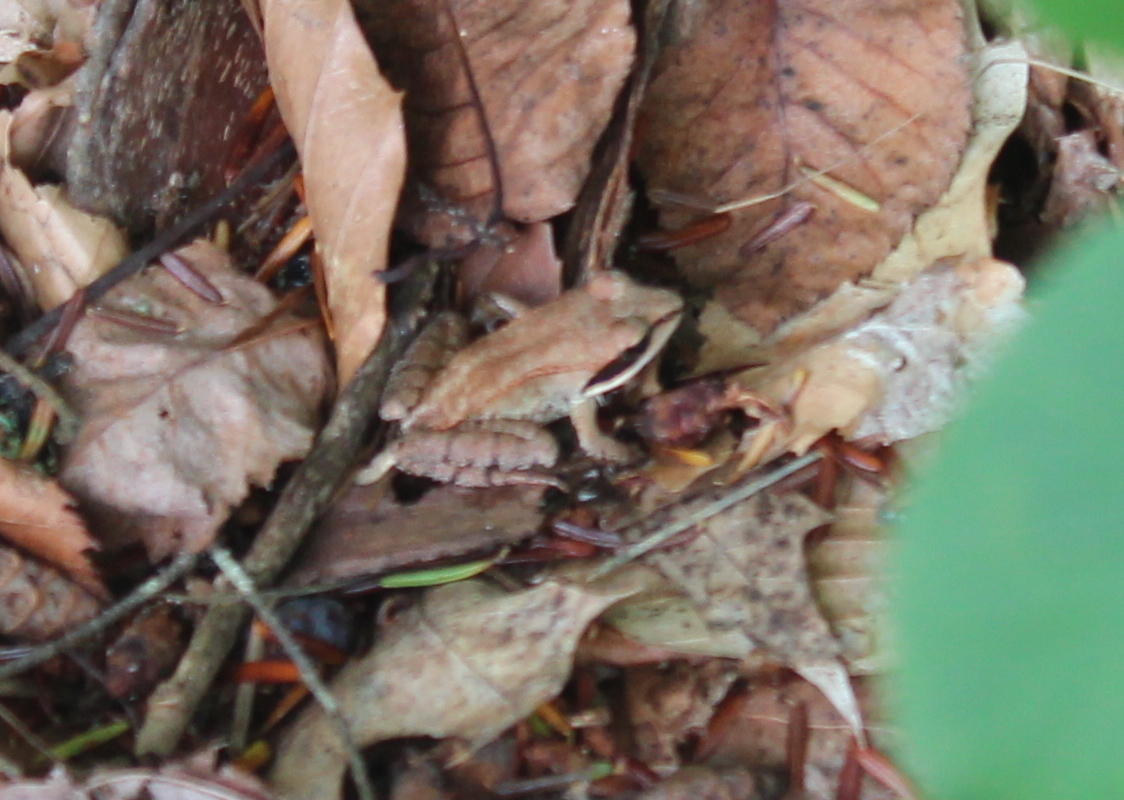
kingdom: Animalia
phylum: Chordata
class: Amphibia
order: Anura
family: Ranidae
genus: Lithobates
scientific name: Lithobates sylvaticus
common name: Wood frog
